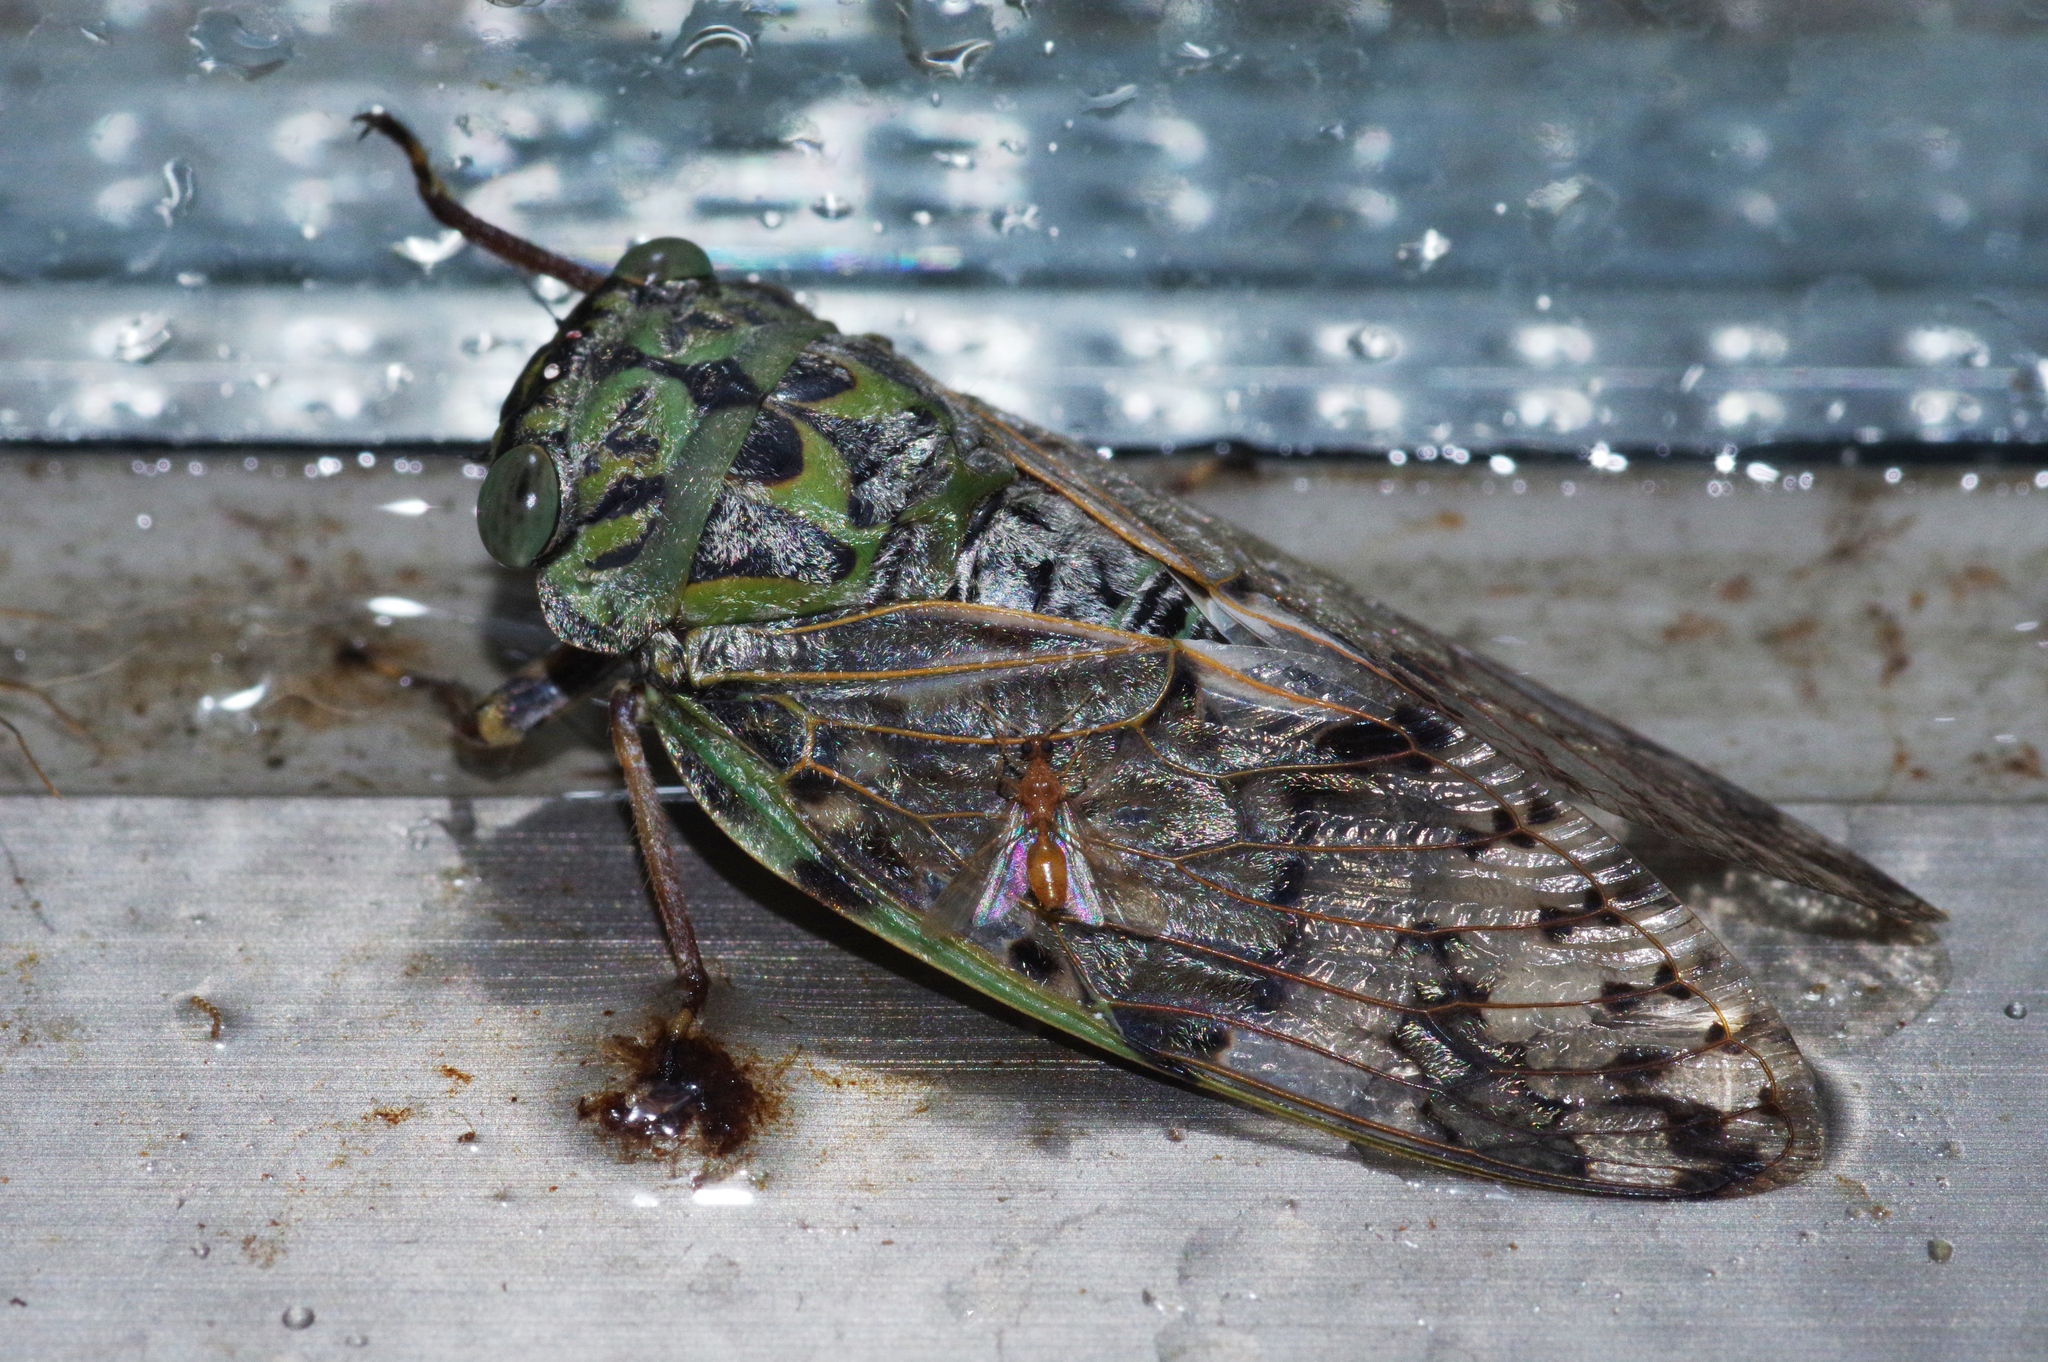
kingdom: Animalia
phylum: Arthropoda
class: Insecta
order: Hemiptera
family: Cicadidae
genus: Platypleura
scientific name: Platypleura kuroiwae
